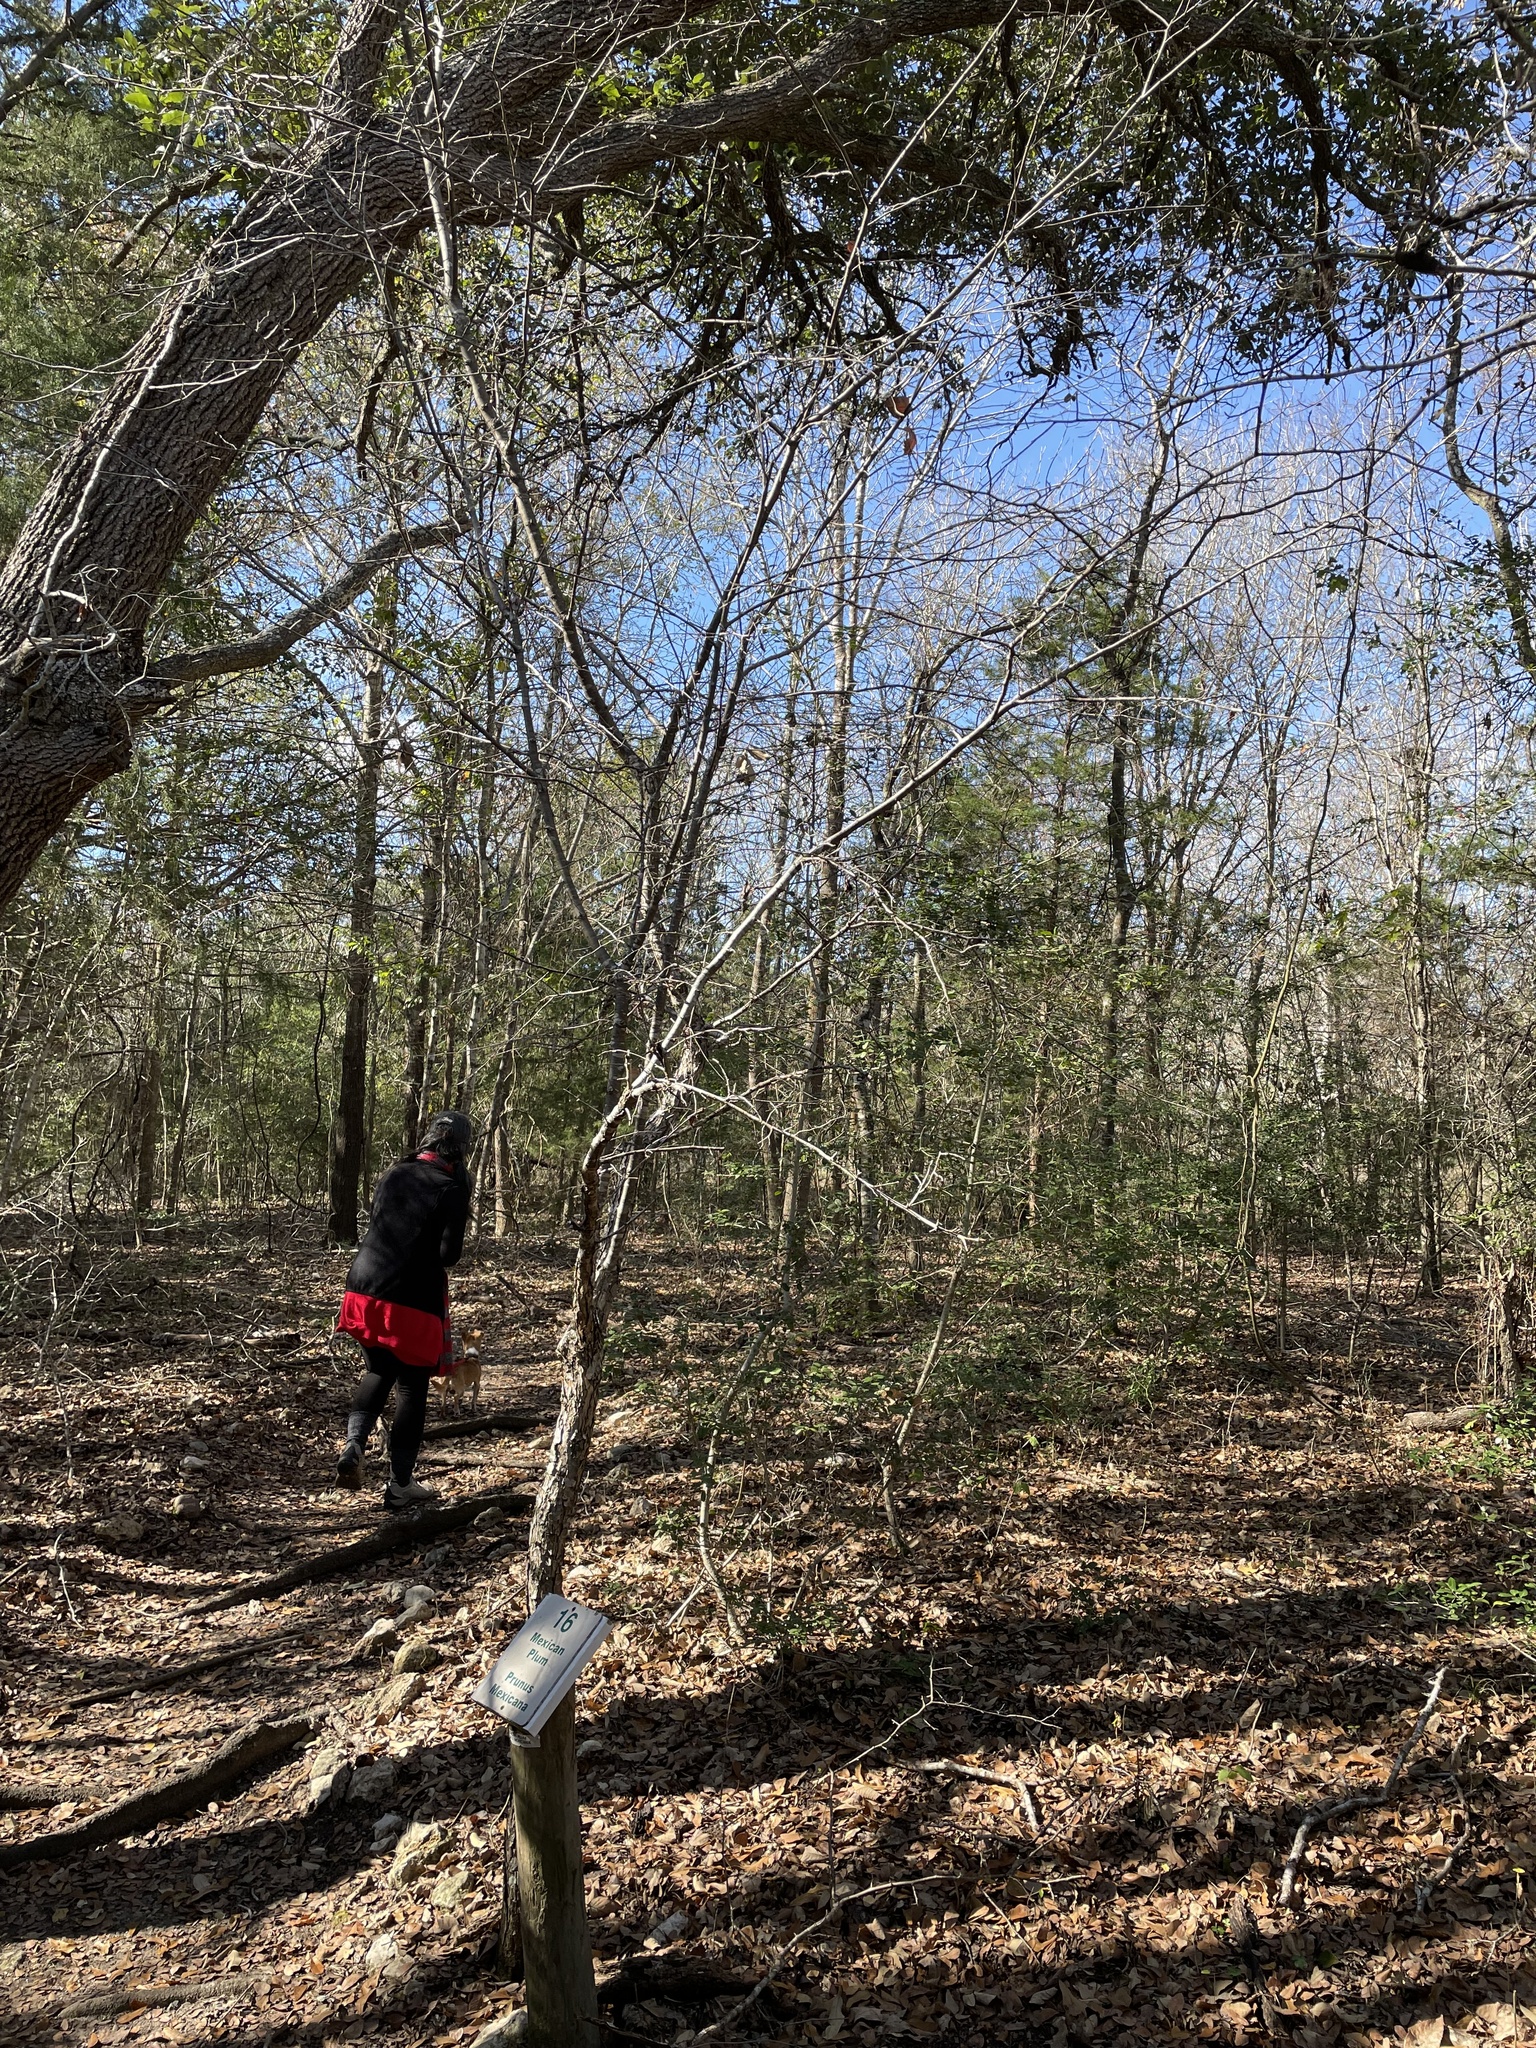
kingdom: Plantae
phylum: Tracheophyta
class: Magnoliopsida
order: Rosales
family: Rosaceae
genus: Prunus
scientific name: Prunus mexicana
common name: Mexican plum
